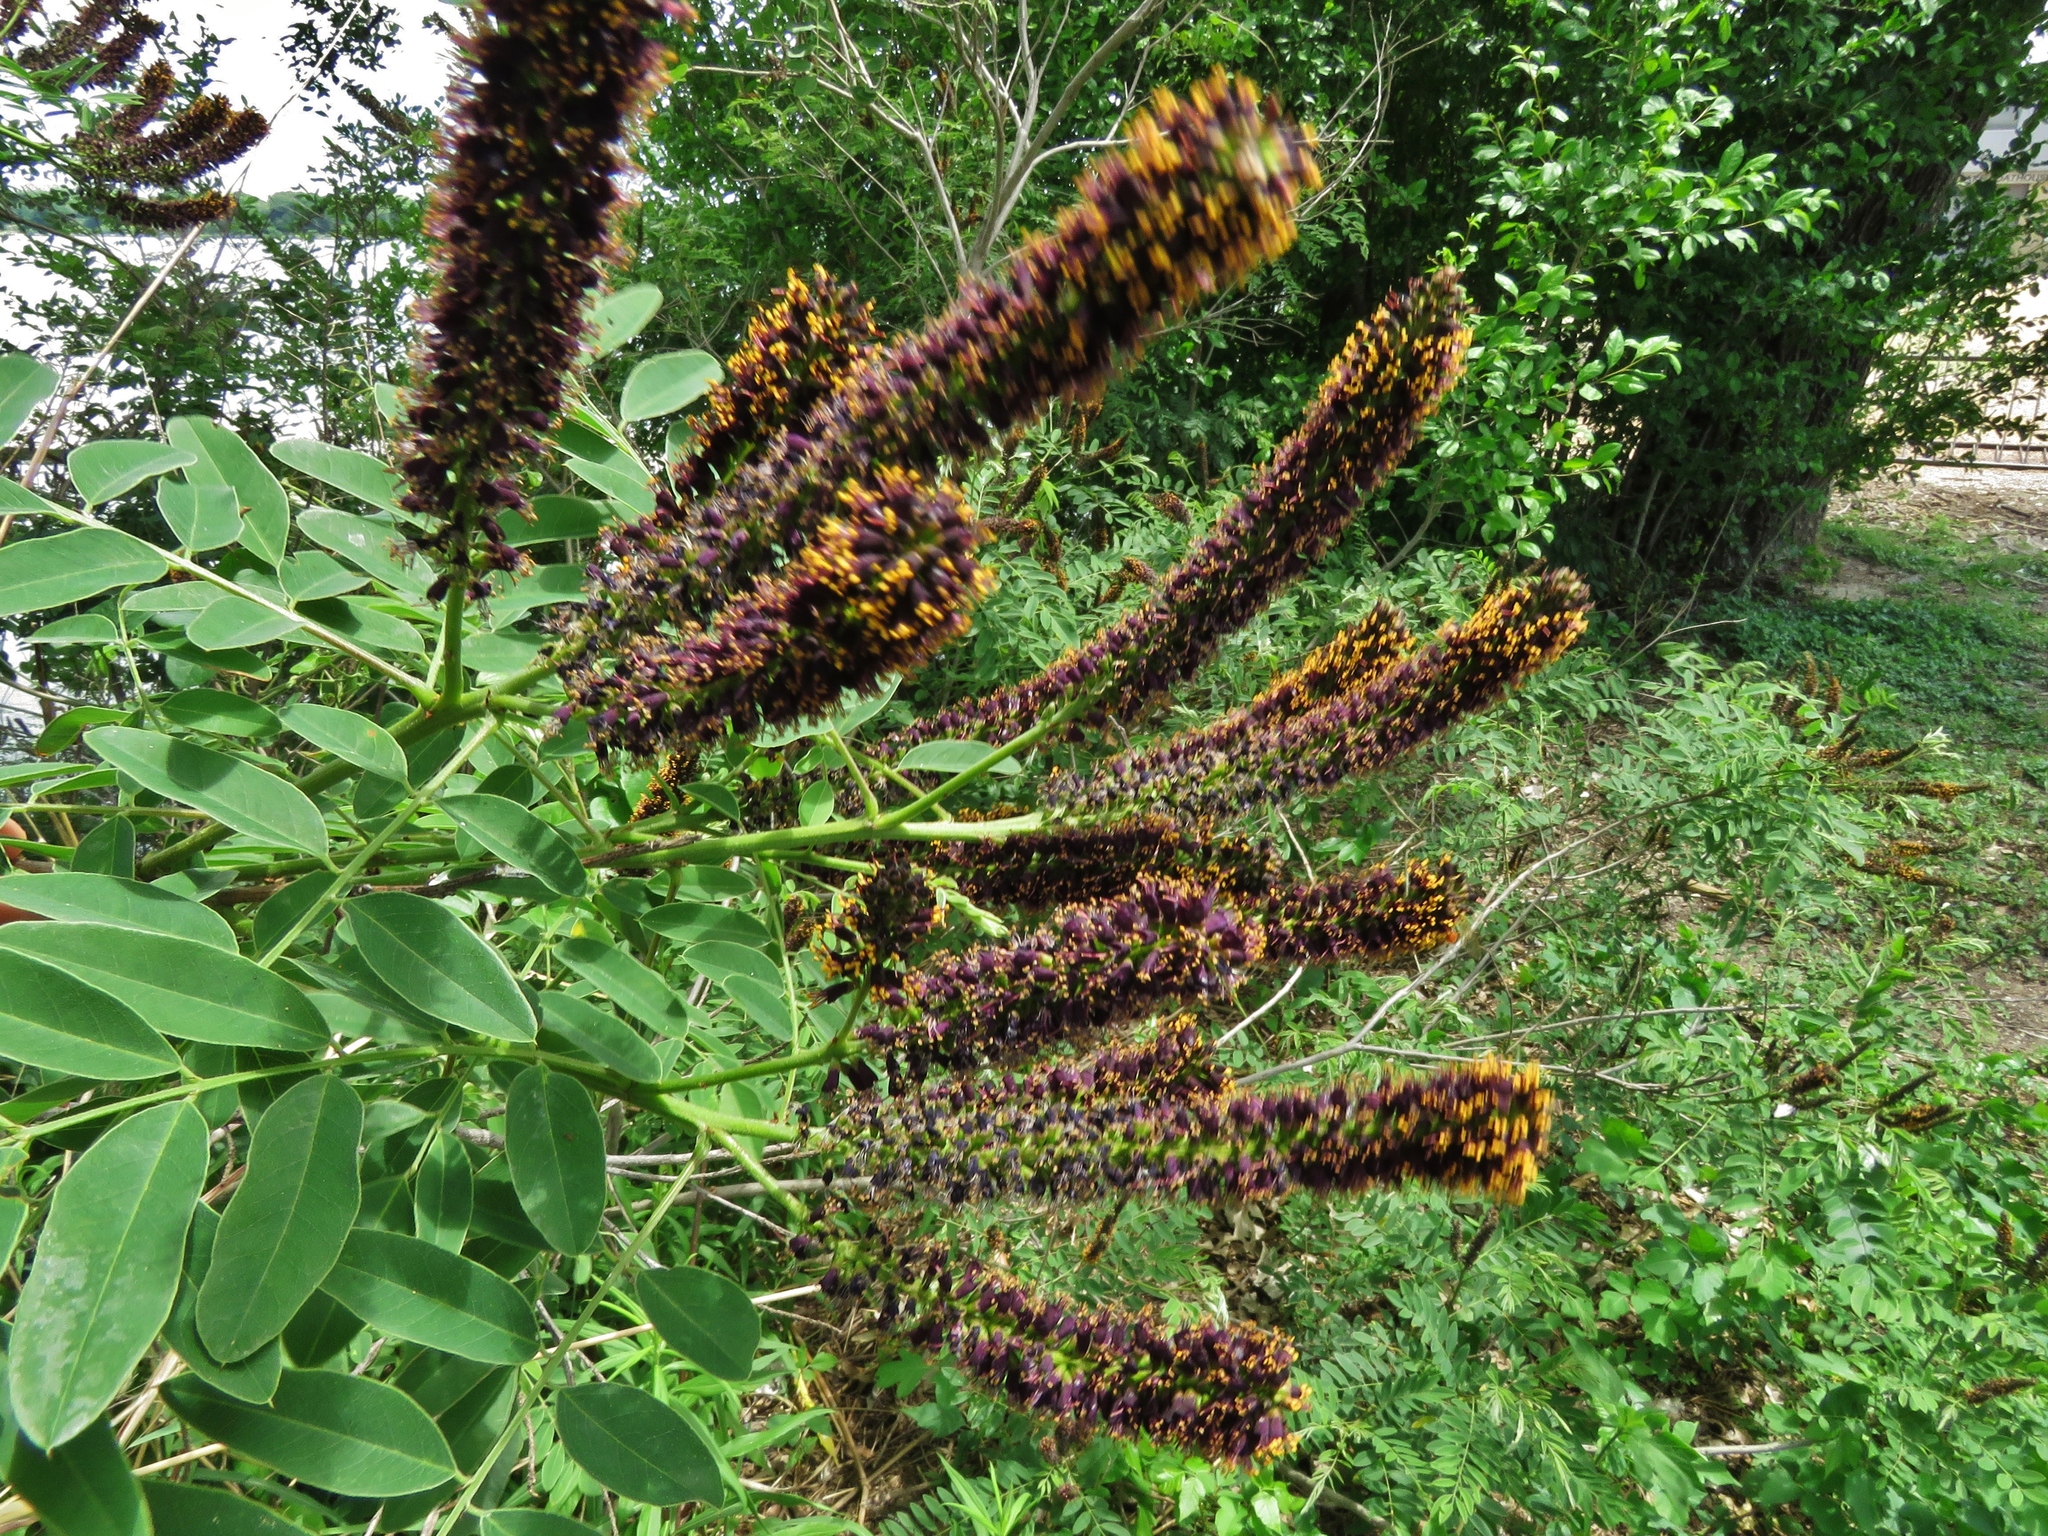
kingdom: Plantae
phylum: Tracheophyta
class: Magnoliopsida
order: Fabales
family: Fabaceae
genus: Amorpha
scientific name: Amorpha fruticosa
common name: False indigo
